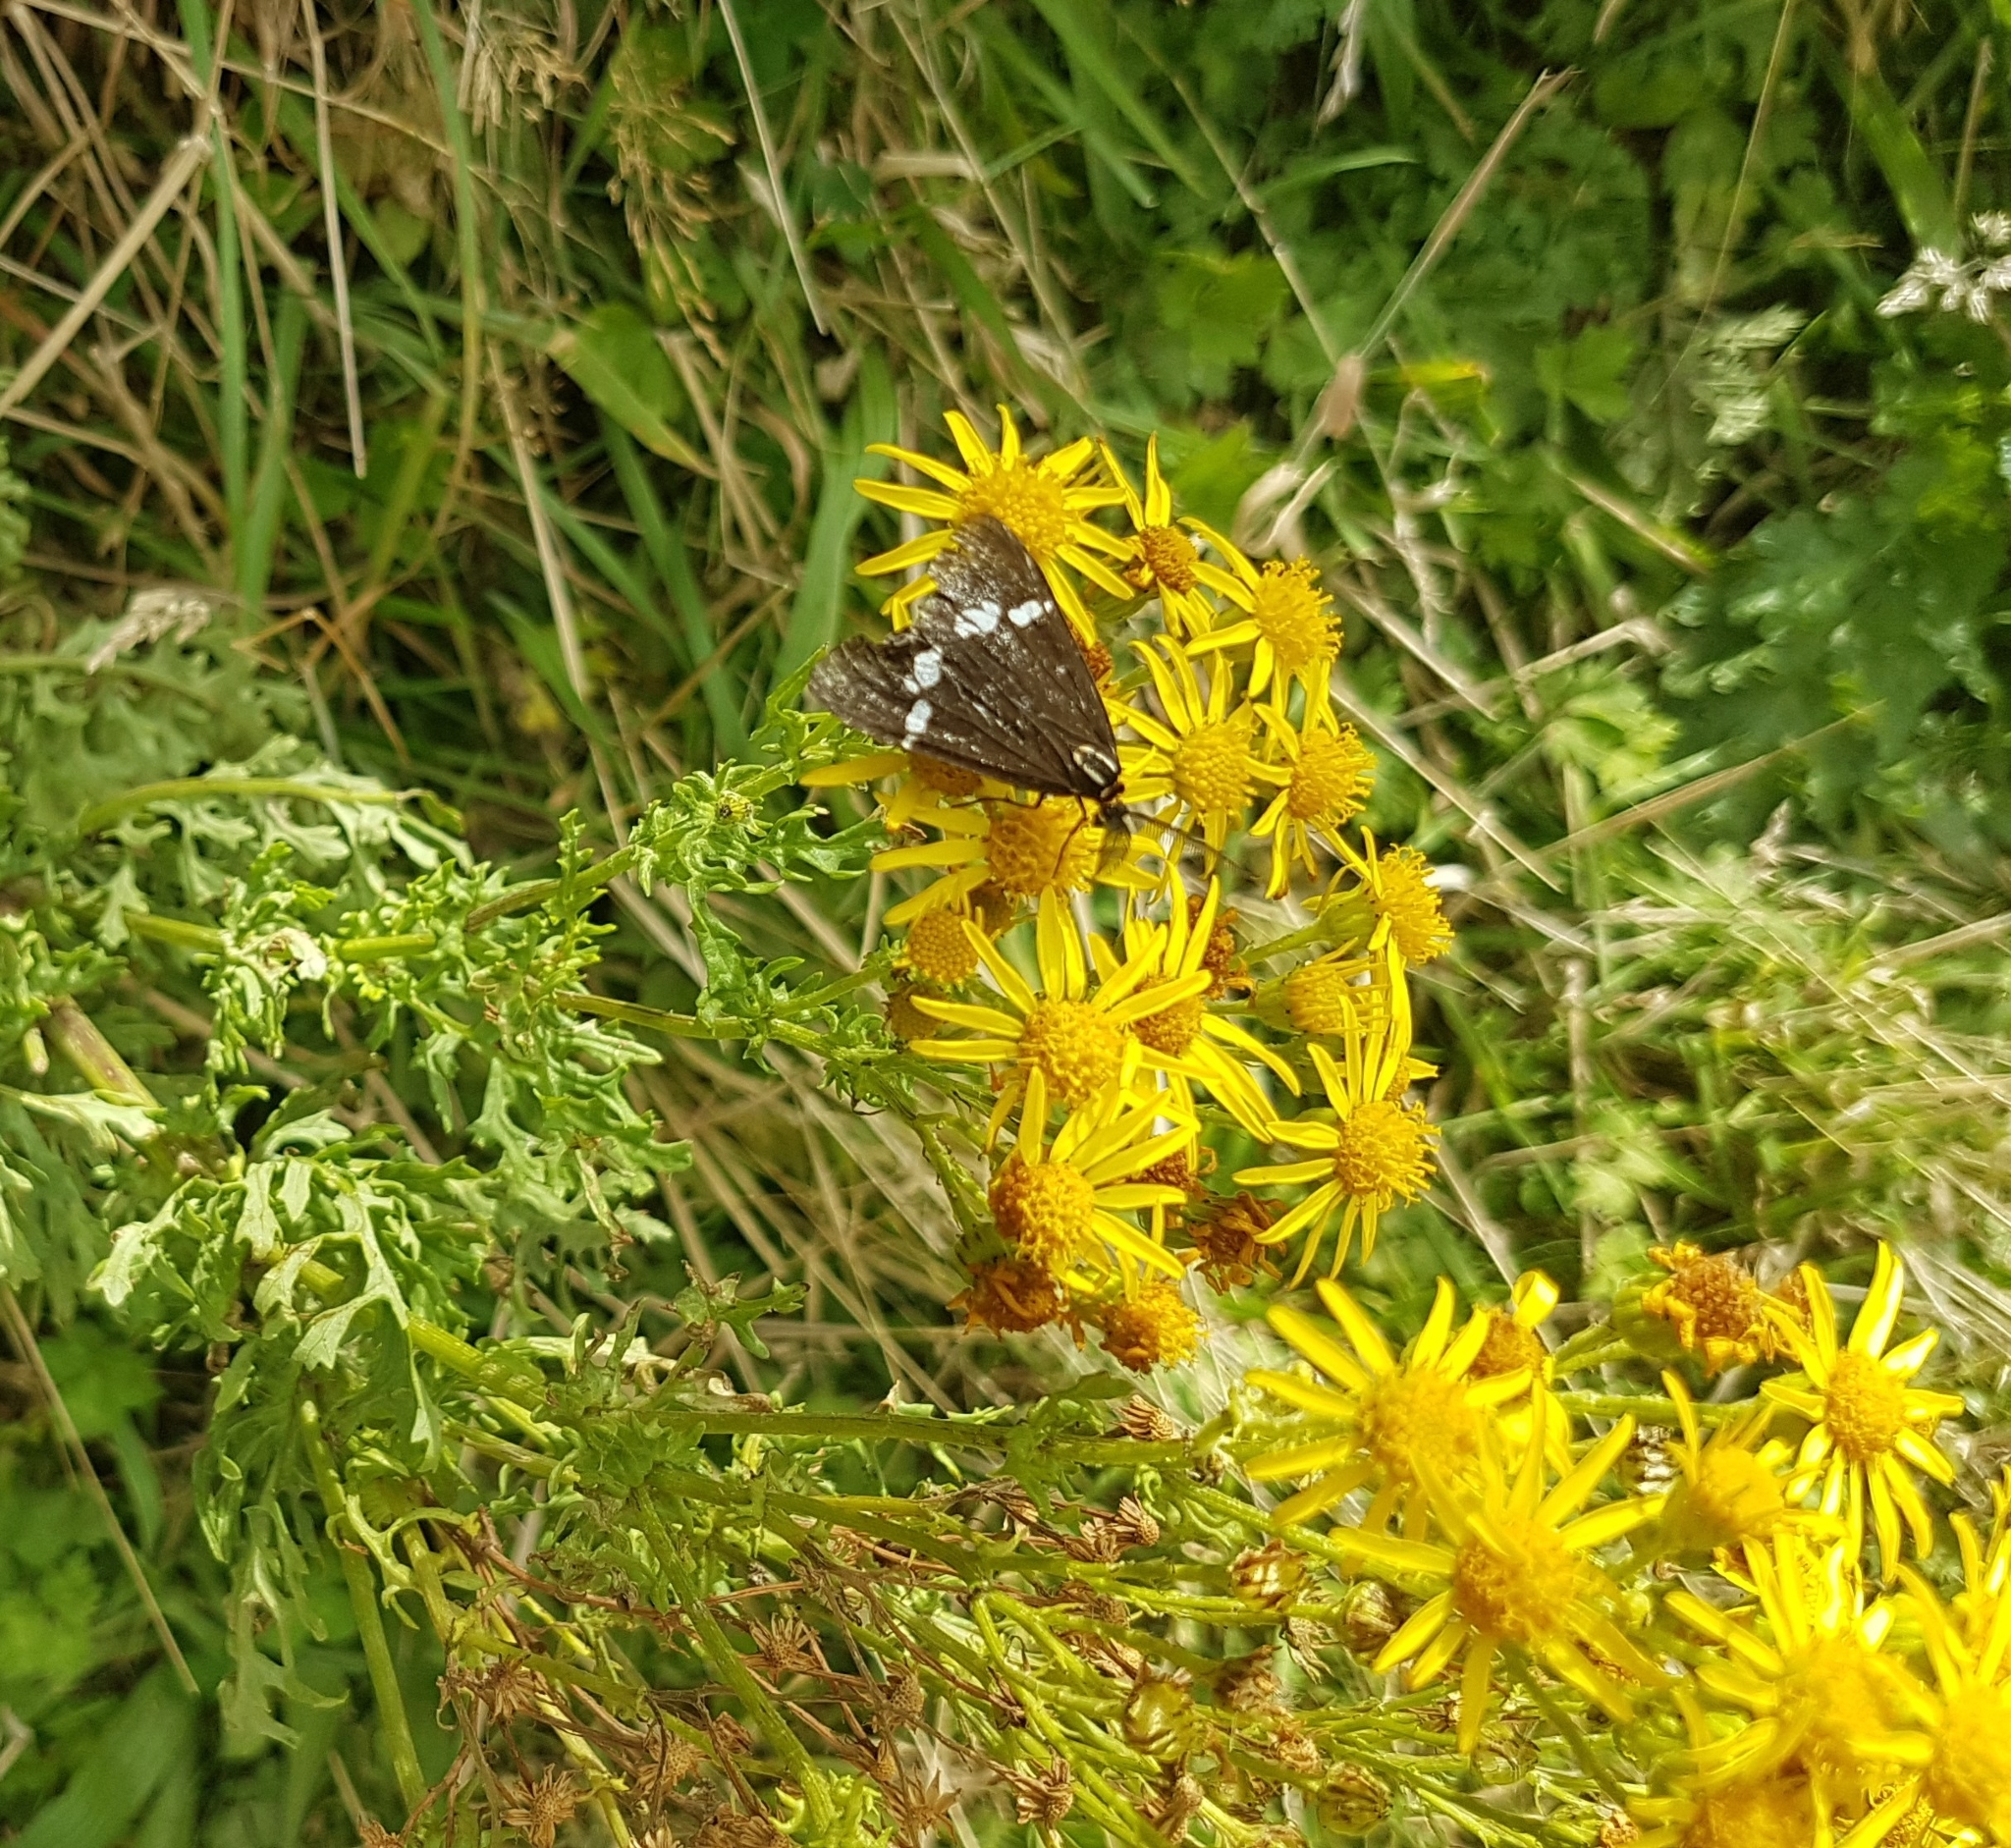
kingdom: Animalia
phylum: Arthropoda
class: Insecta
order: Lepidoptera
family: Erebidae
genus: Nyctemera
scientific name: Nyctemera annulatum
